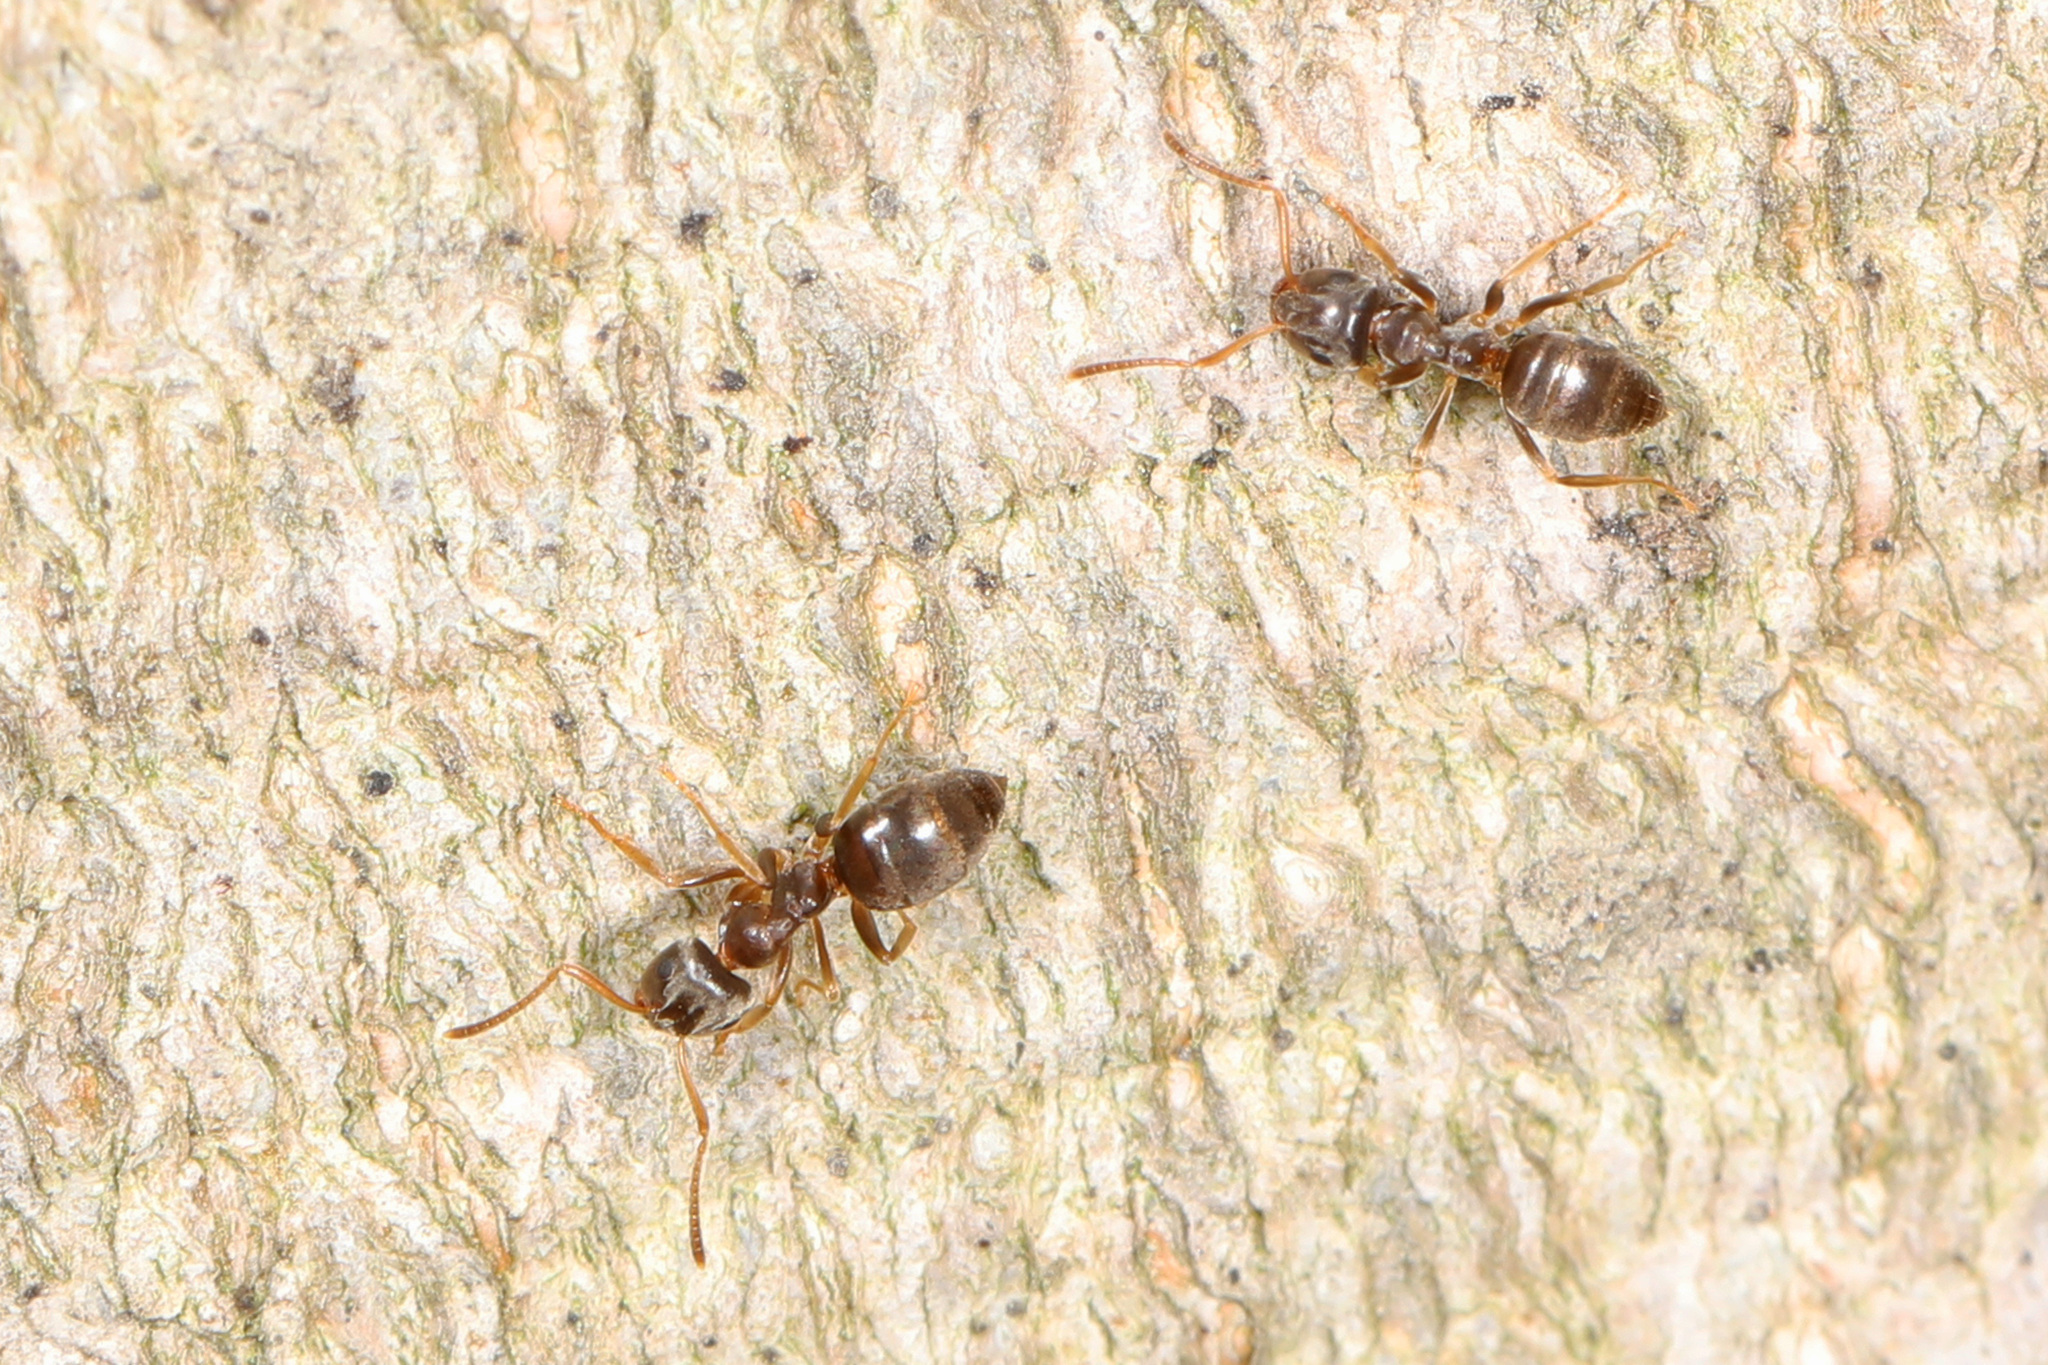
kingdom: Animalia
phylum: Arthropoda
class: Insecta
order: Hymenoptera
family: Formicidae
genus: Lasius
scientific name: Lasius americanus
